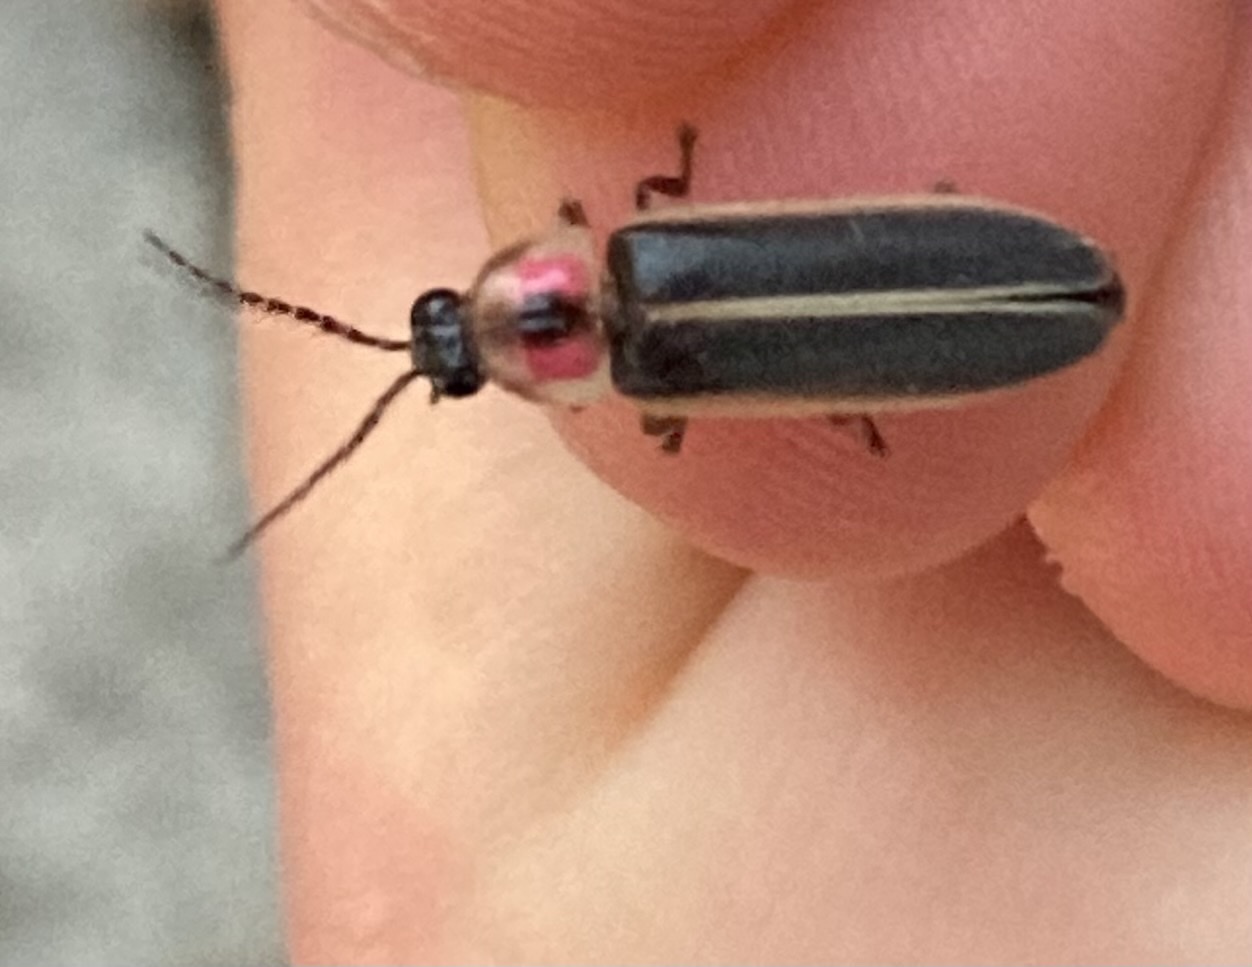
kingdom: Animalia
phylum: Arthropoda
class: Insecta
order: Coleoptera
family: Lampyridae
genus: Photinus
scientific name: Photinus pyralis
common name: Big dipper firefly
